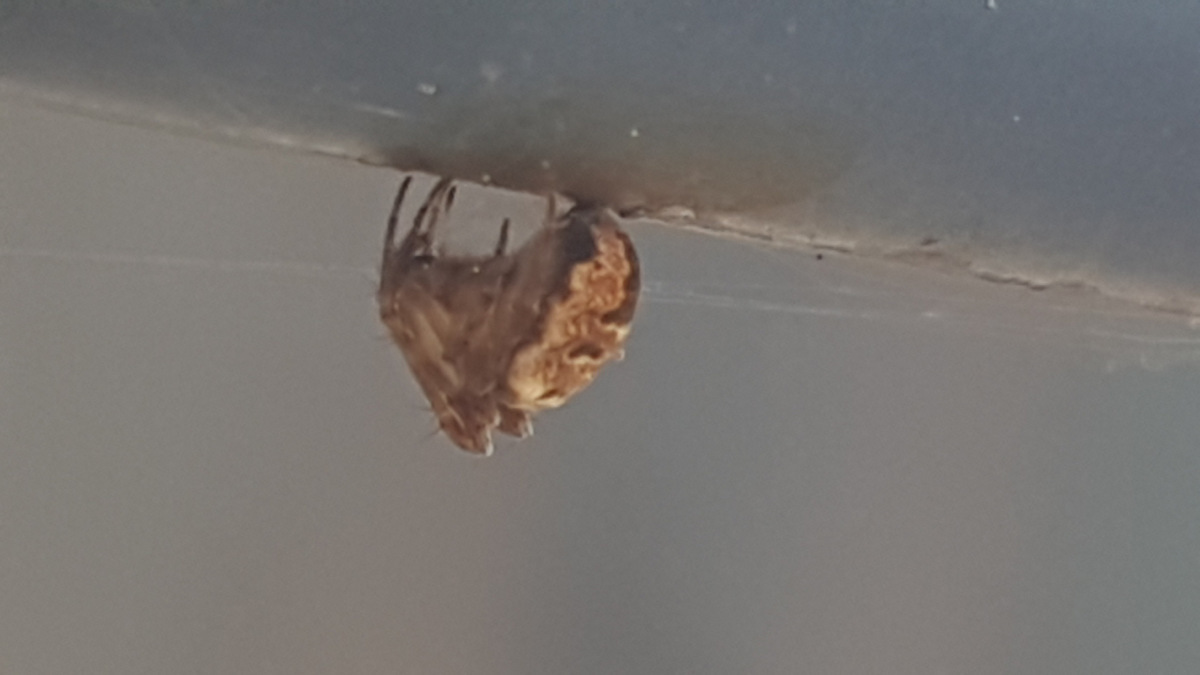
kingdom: Animalia
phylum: Arthropoda
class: Arachnida
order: Araneae
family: Araneidae
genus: Zilla
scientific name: Zilla diodia
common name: Zilla diodia
